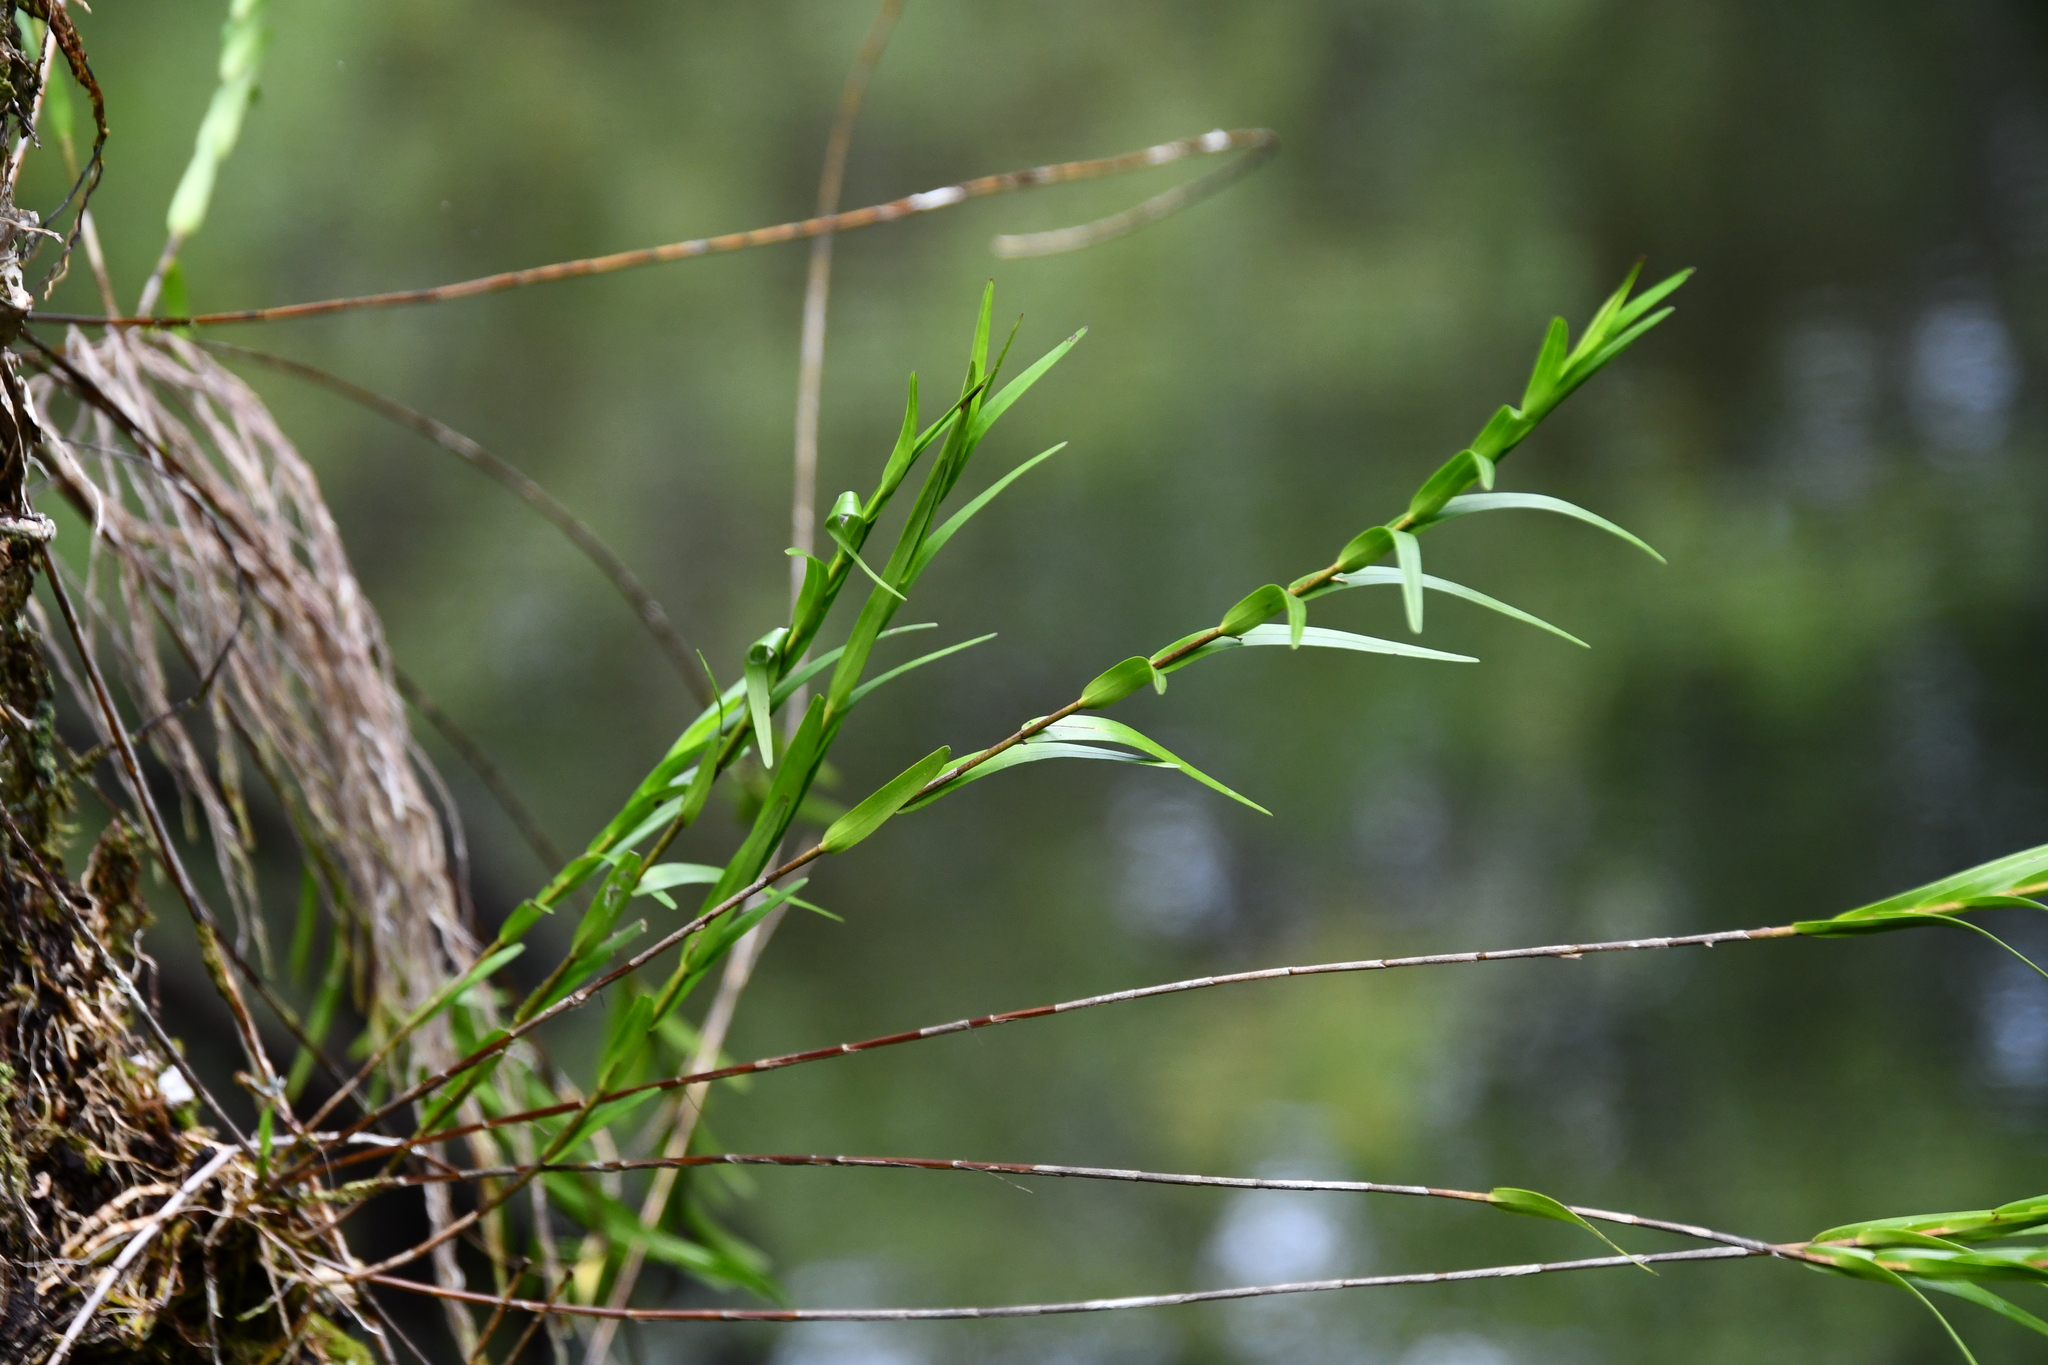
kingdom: Plantae
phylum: Tracheophyta
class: Liliopsida
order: Asparagales
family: Orchidaceae
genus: Dendrobium
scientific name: Dendrobium baileyi
